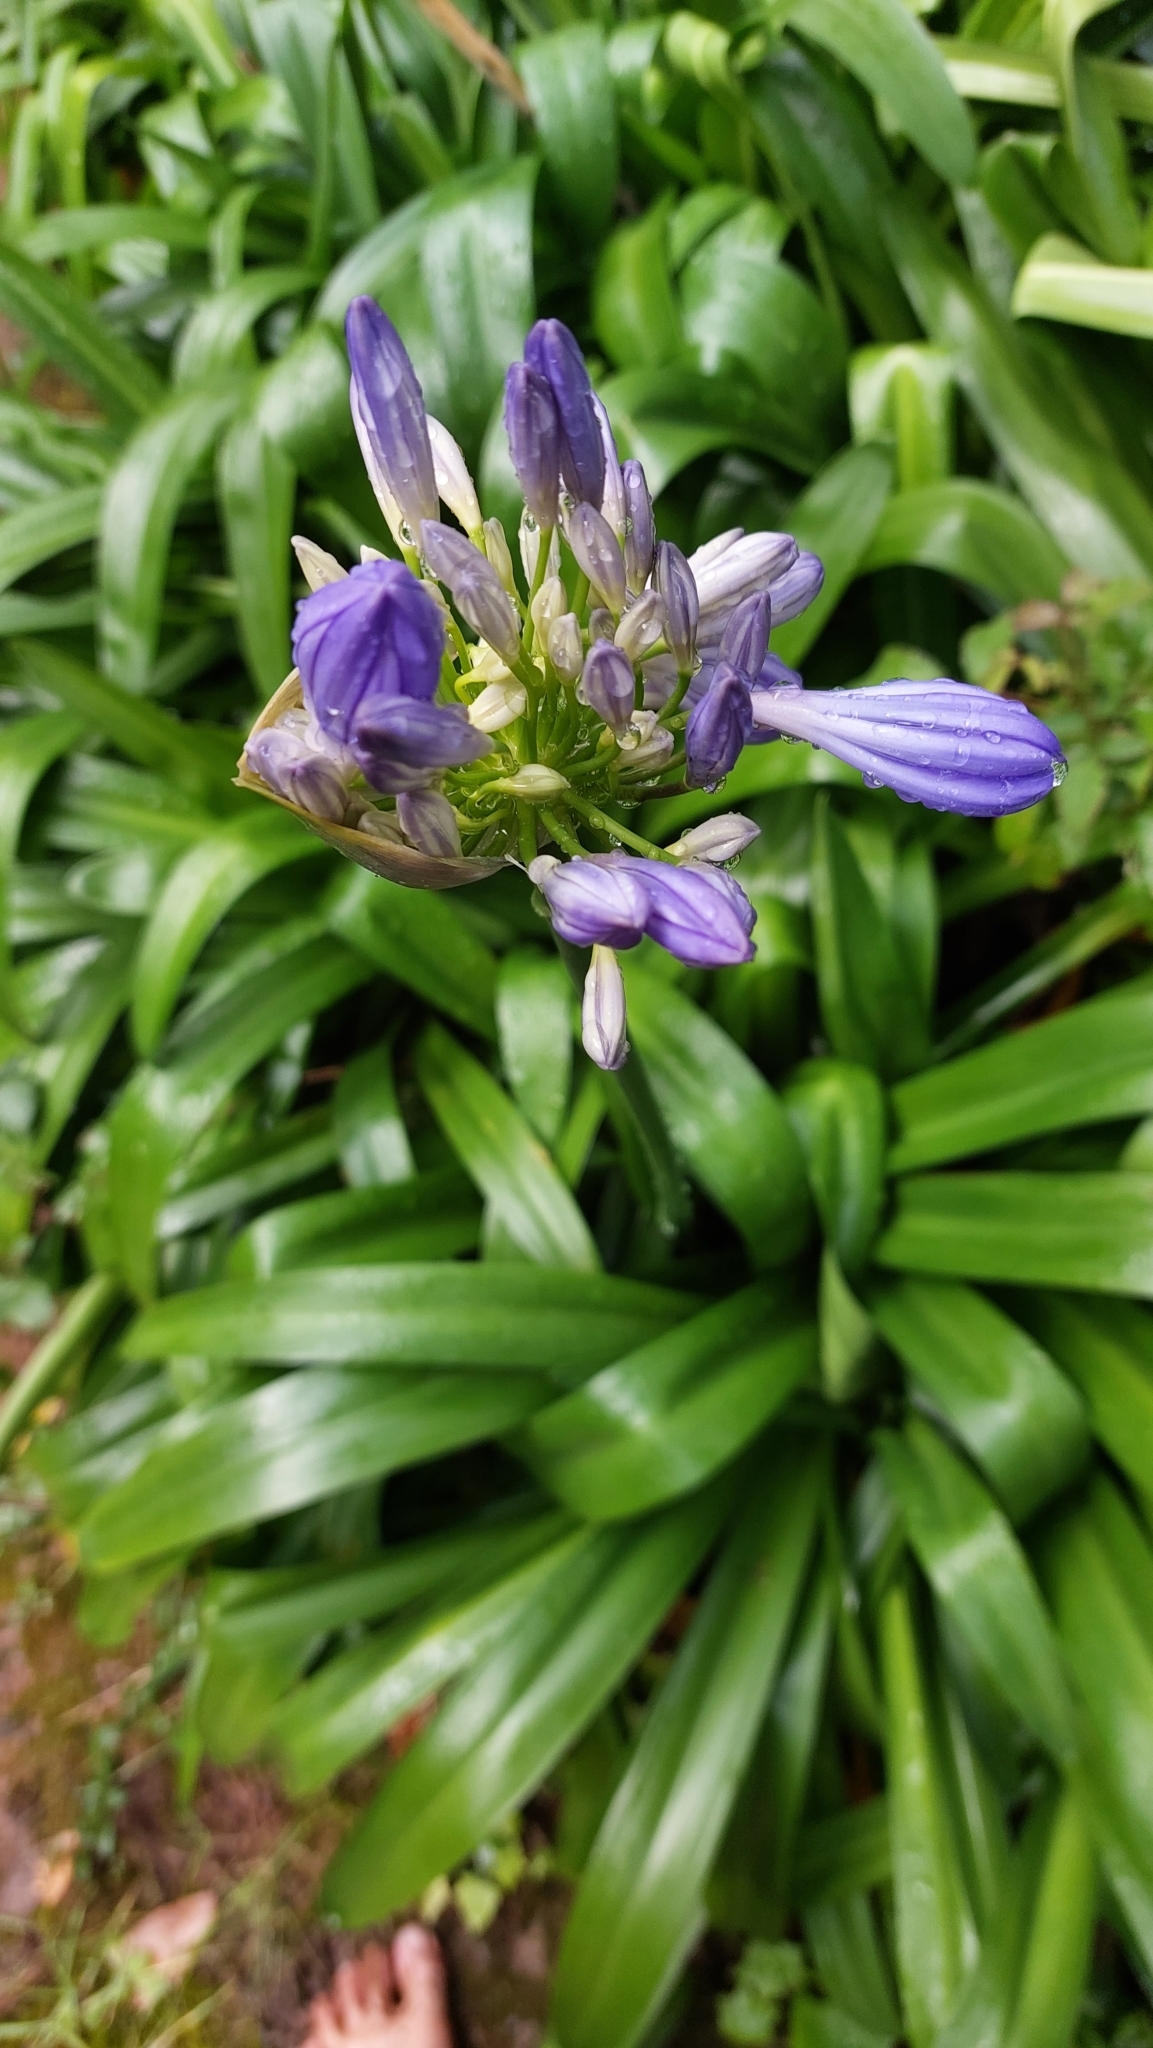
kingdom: Plantae
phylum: Tracheophyta
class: Liliopsida
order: Asparagales
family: Amaryllidaceae
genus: Agapanthus
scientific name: Agapanthus praecox
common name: African-lily
